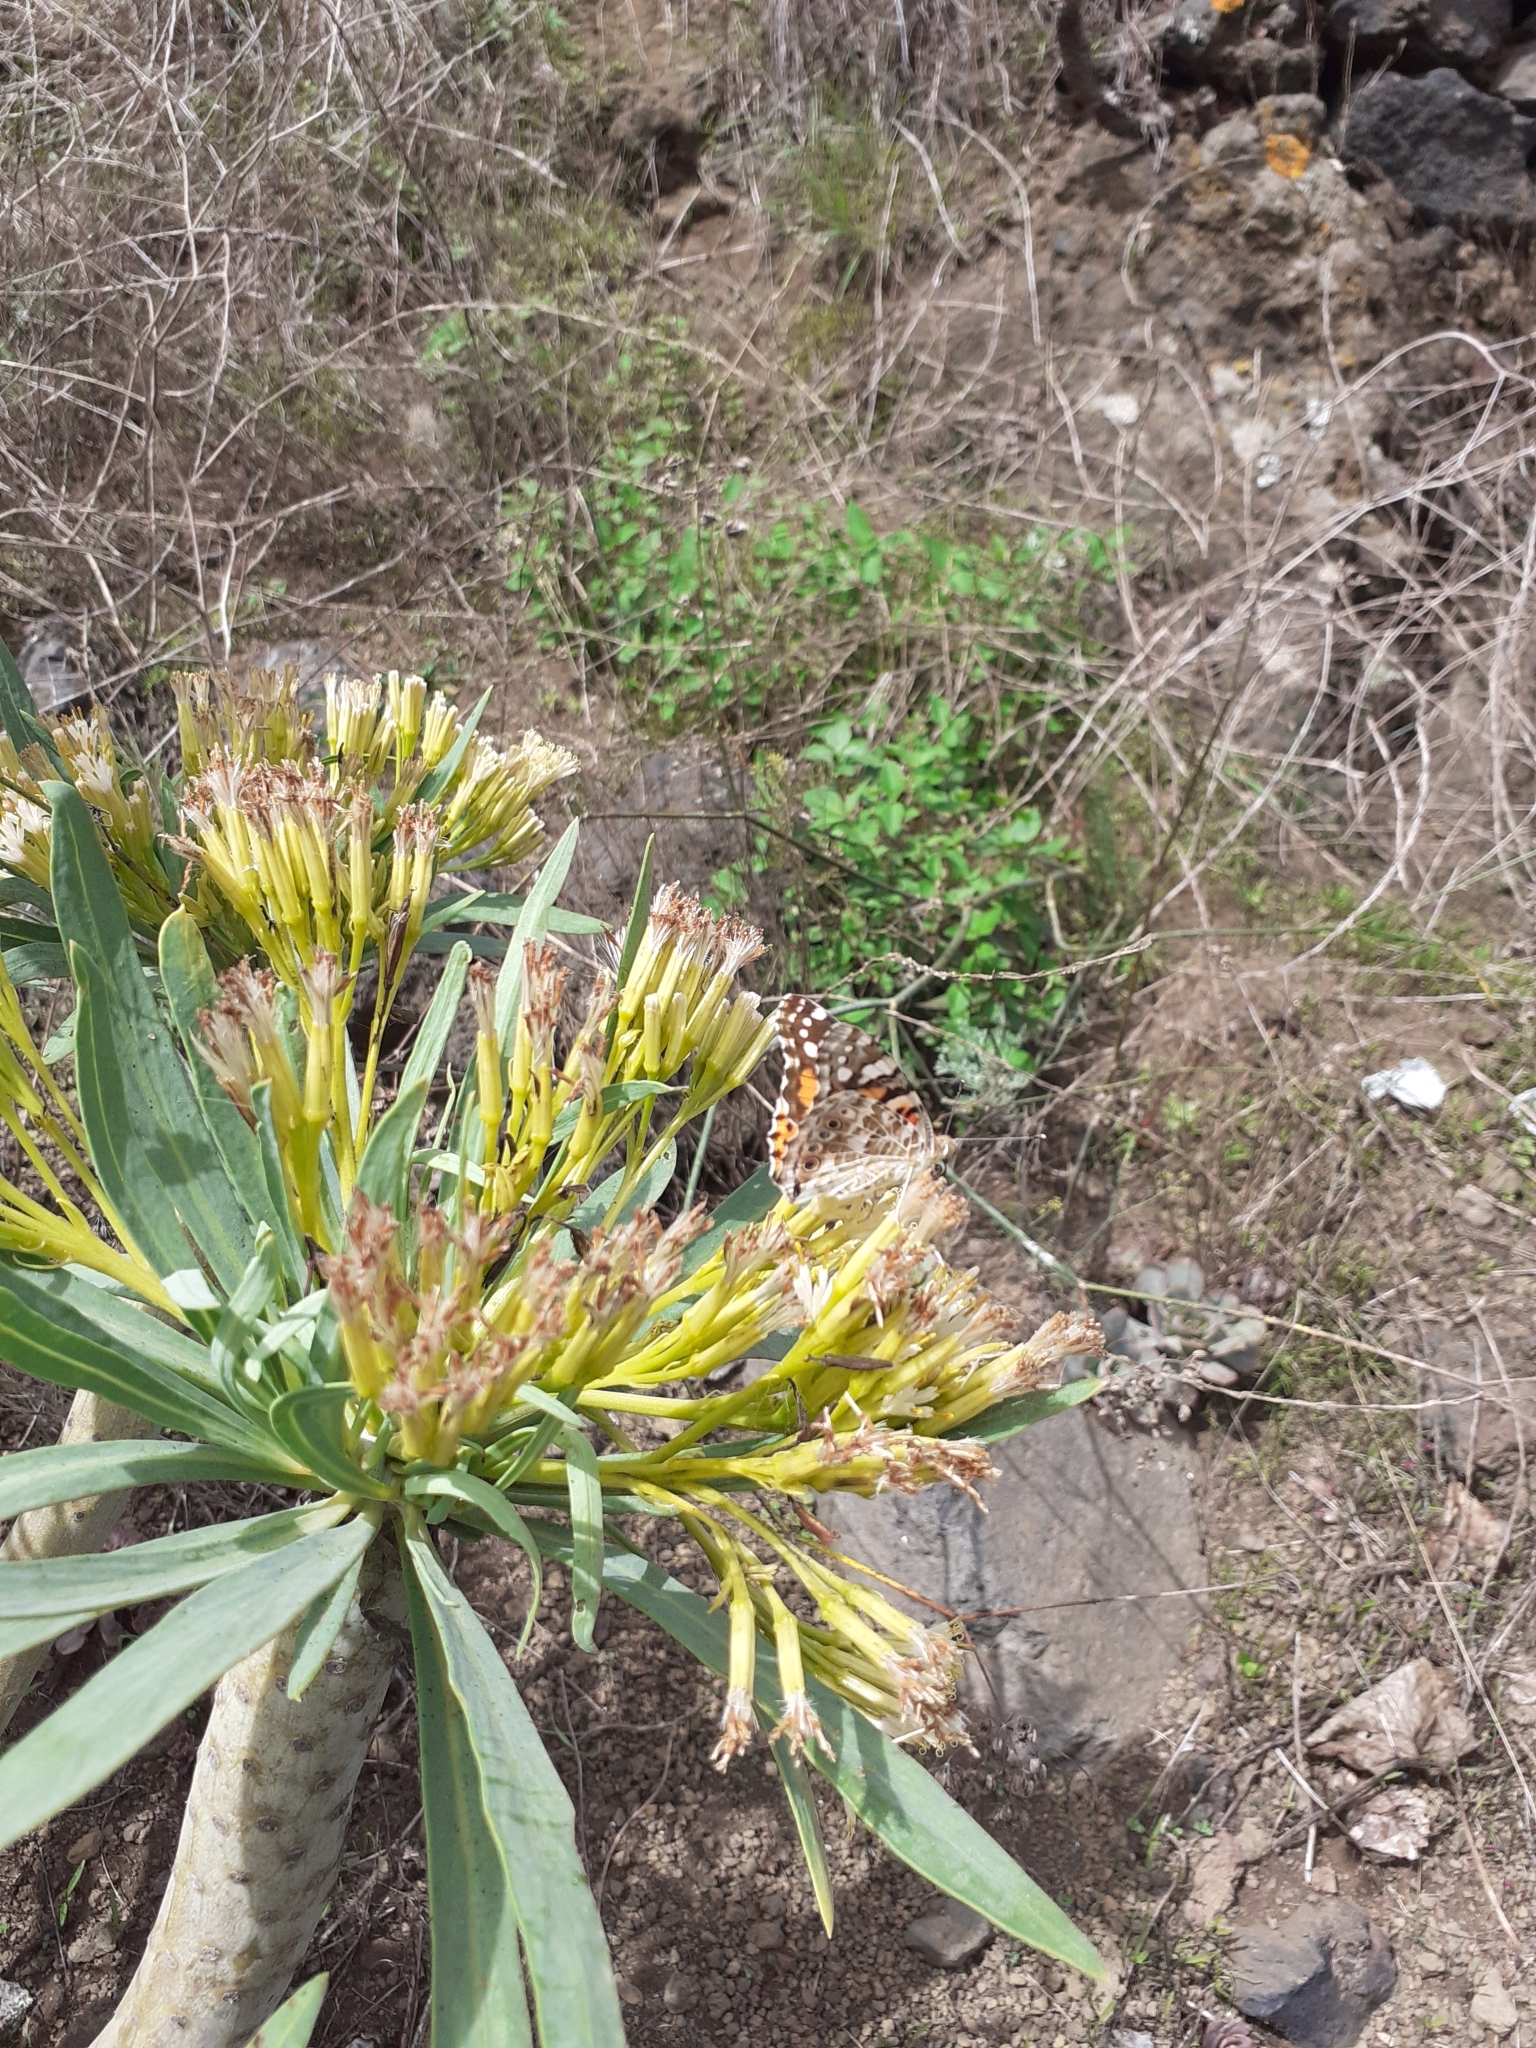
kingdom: Animalia
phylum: Arthropoda
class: Insecta
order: Lepidoptera
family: Nymphalidae
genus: Vanessa
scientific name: Vanessa cardui
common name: Painted lady
